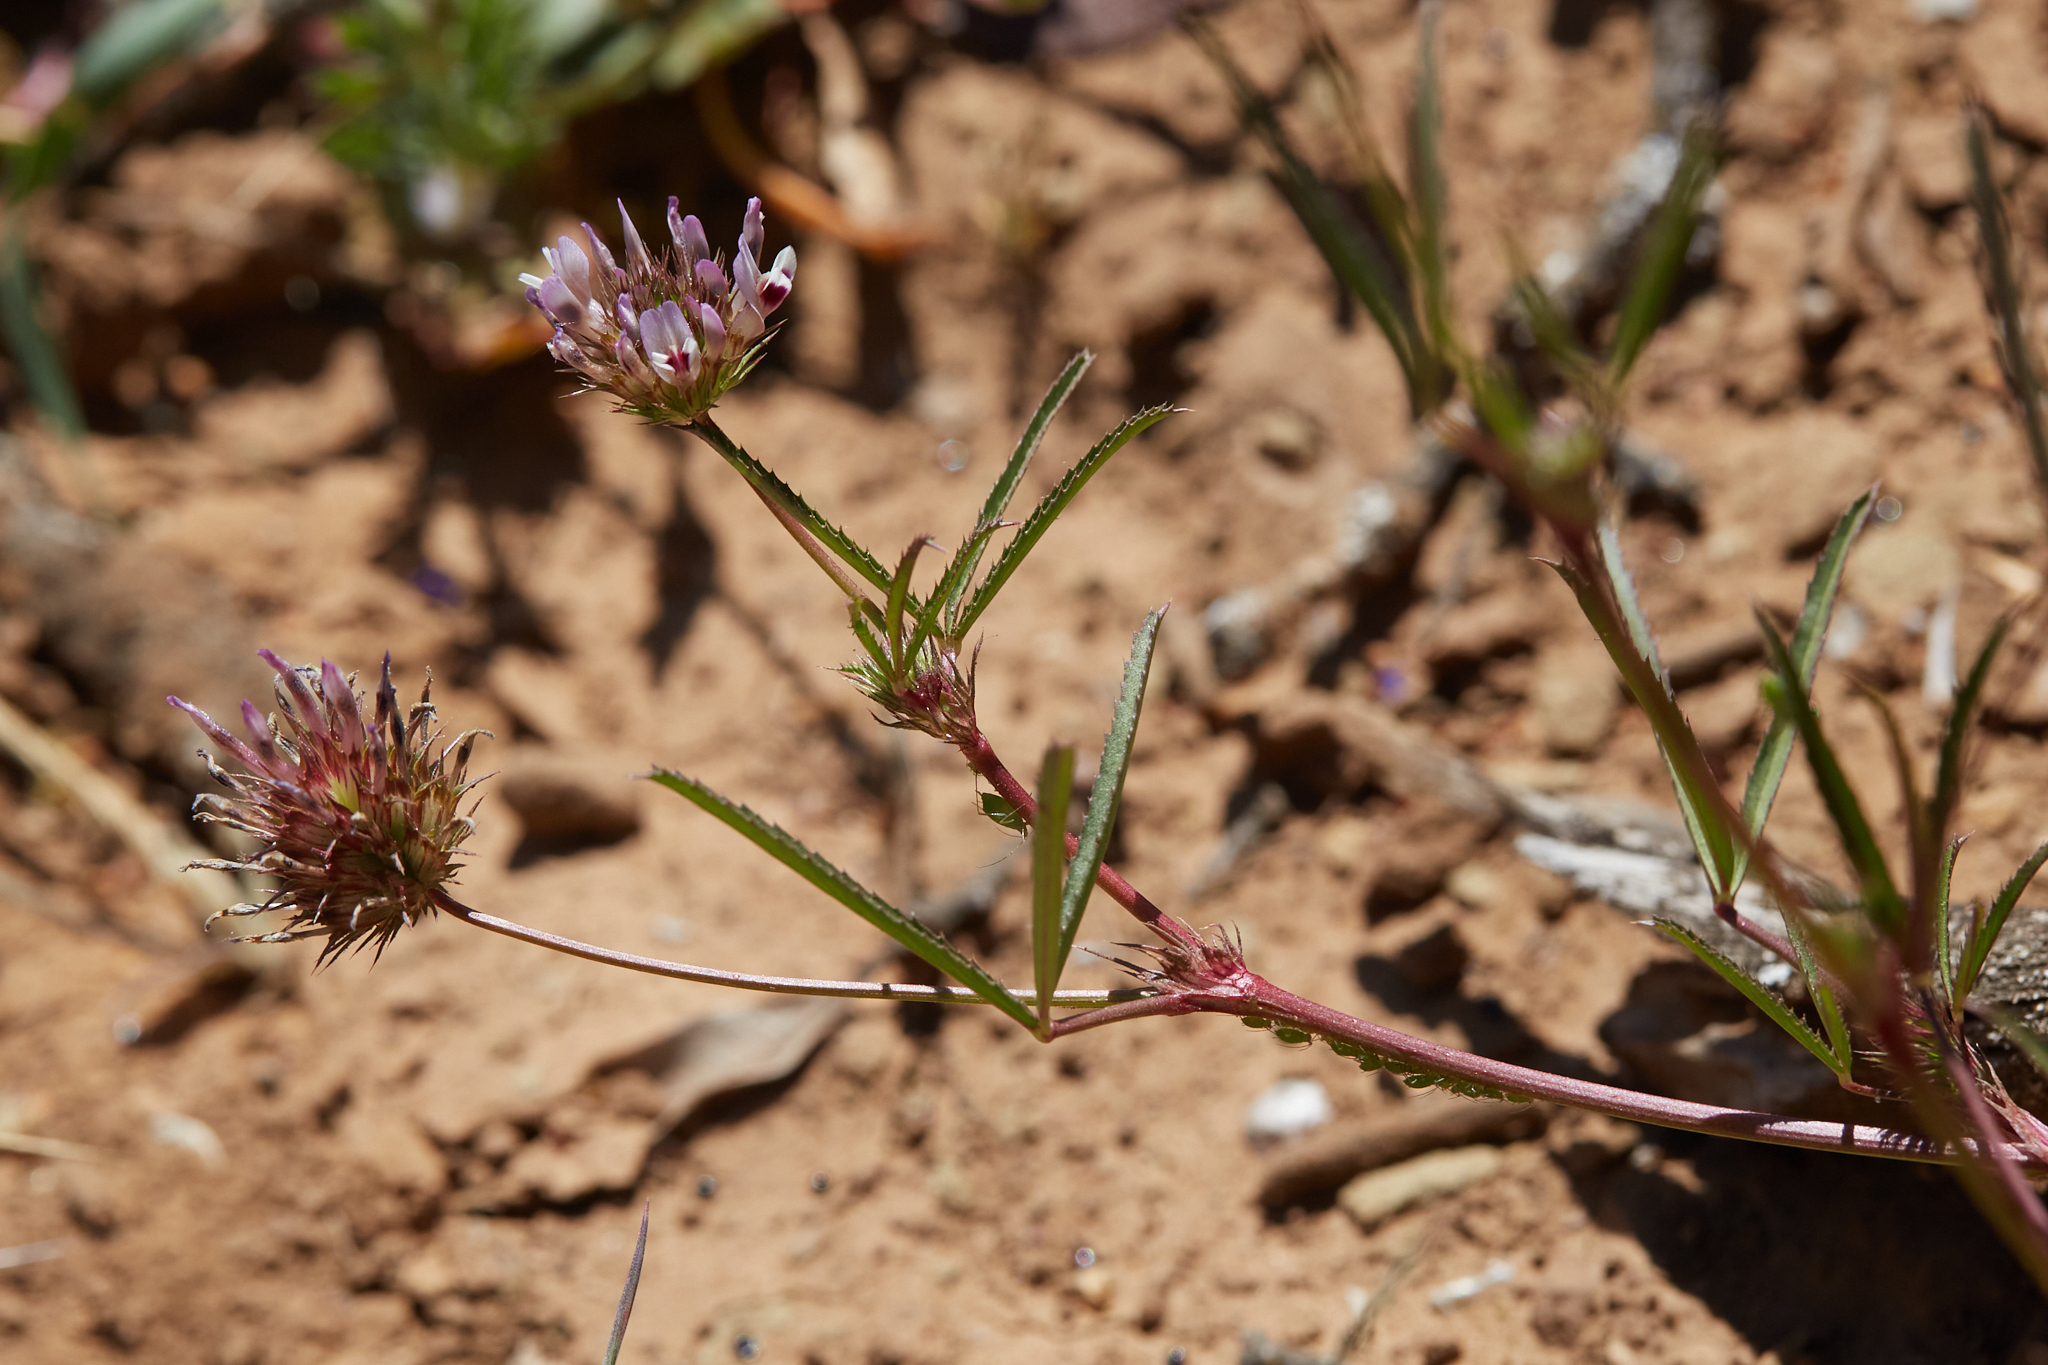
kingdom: Plantae
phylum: Tracheophyta
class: Magnoliopsida
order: Fabales
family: Fabaceae
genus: Trifolium
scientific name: Trifolium willdenovii
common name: Tomcat clover
